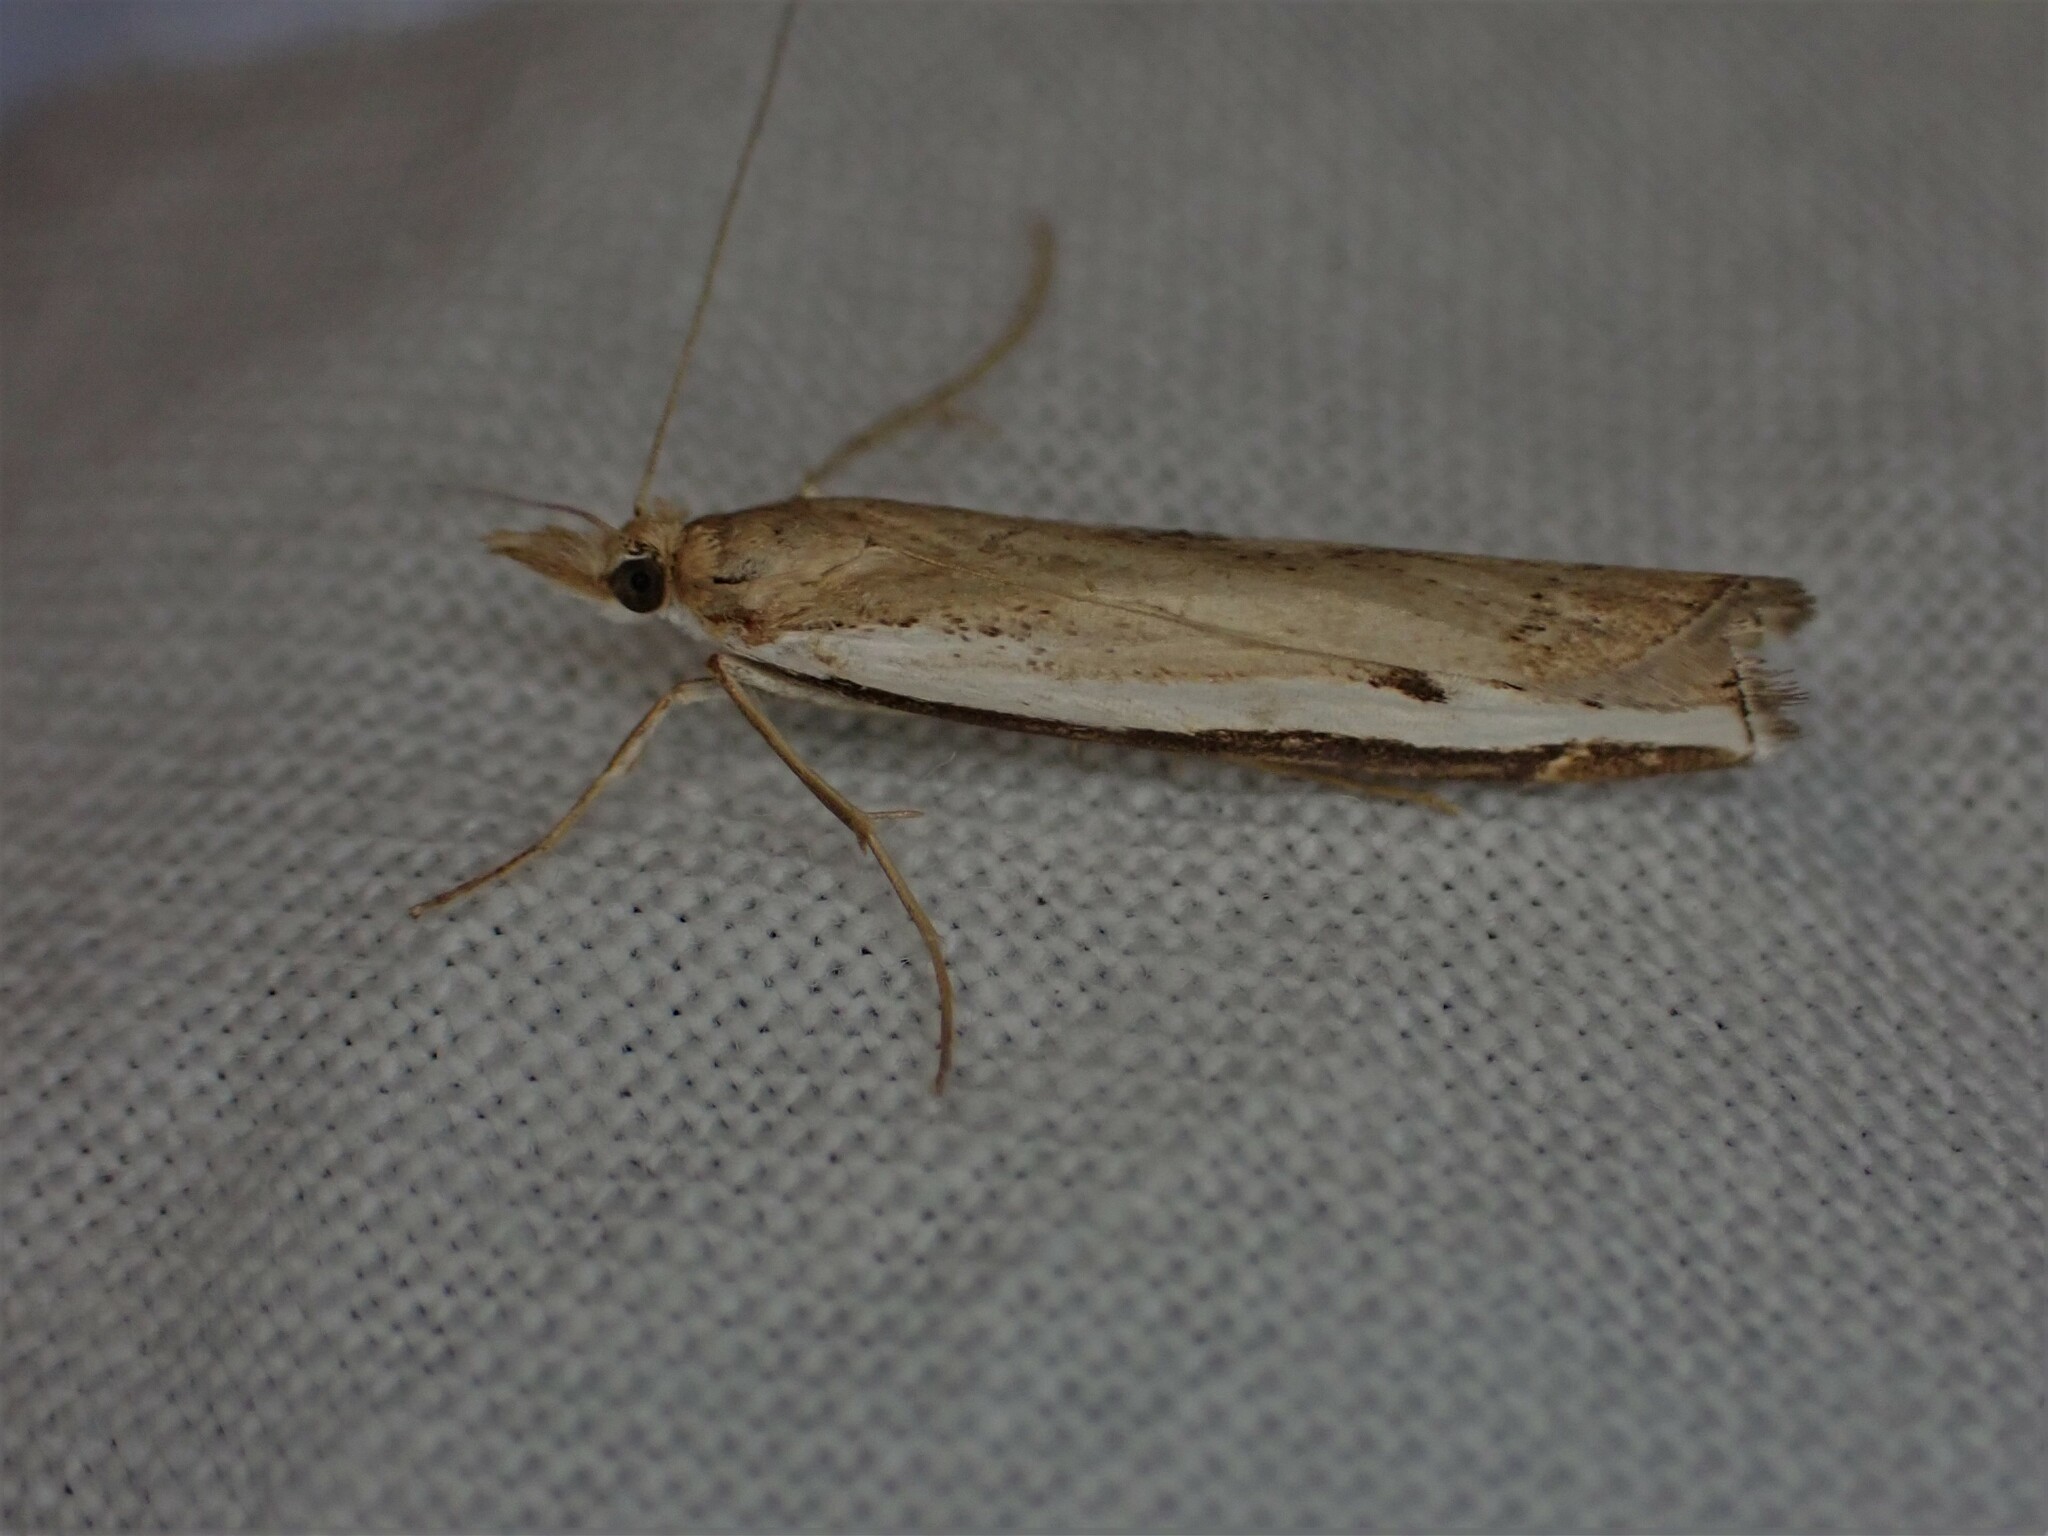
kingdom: Animalia
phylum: Arthropoda
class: Insecta
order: Lepidoptera
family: Crambidae
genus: Orocrambus
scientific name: Orocrambus flexuosellus
